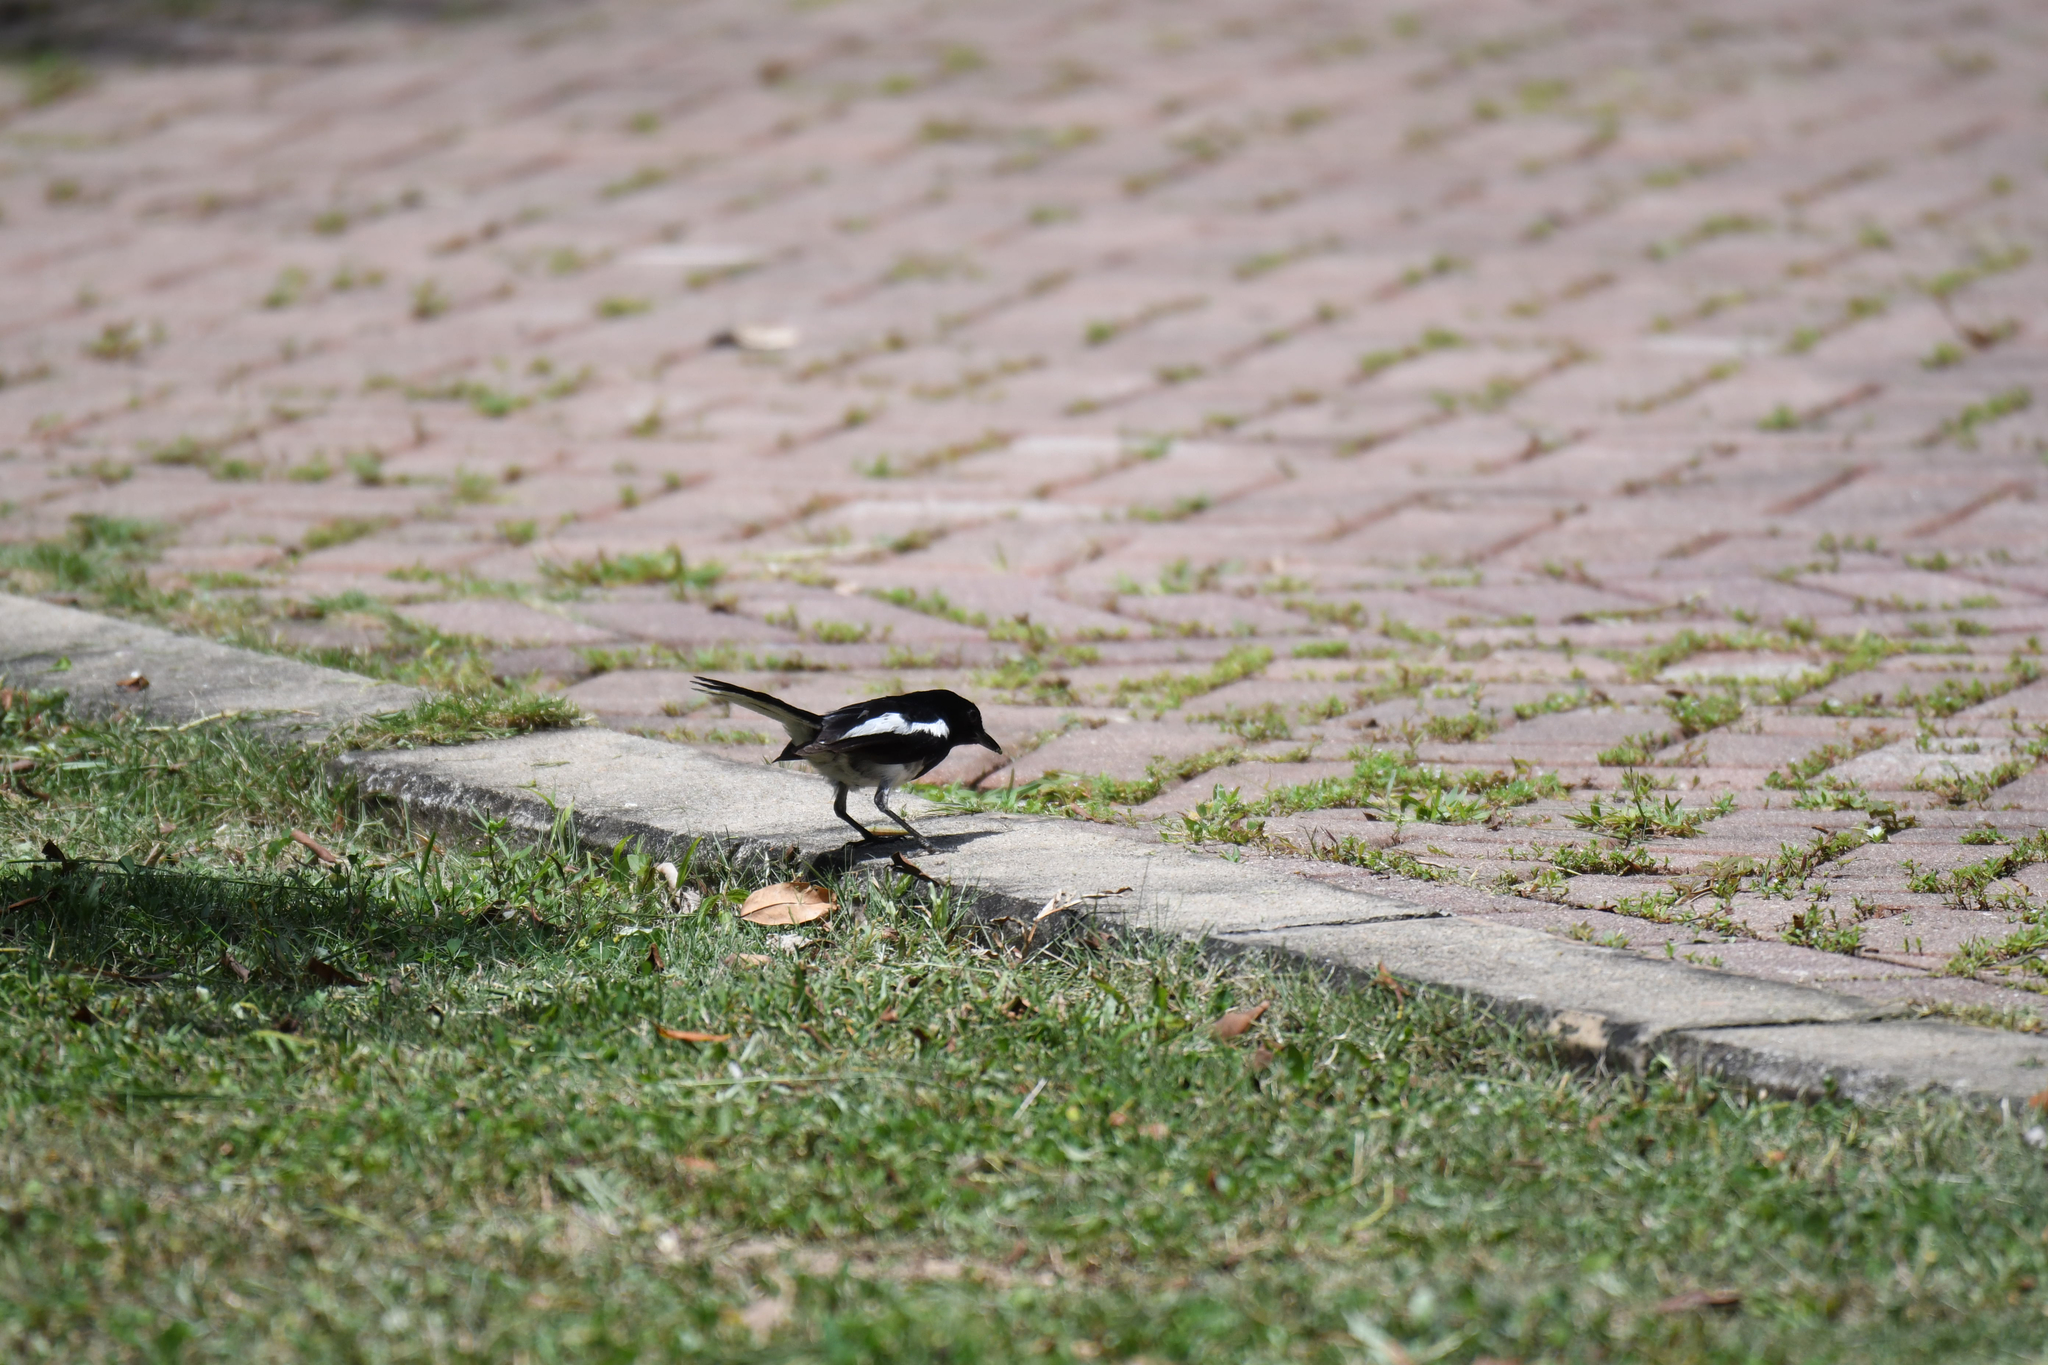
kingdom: Animalia
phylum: Chordata
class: Aves
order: Passeriformes
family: Muscicapidae
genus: Copsychus
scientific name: Copsychus saularis
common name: Oriental magpie-robin
